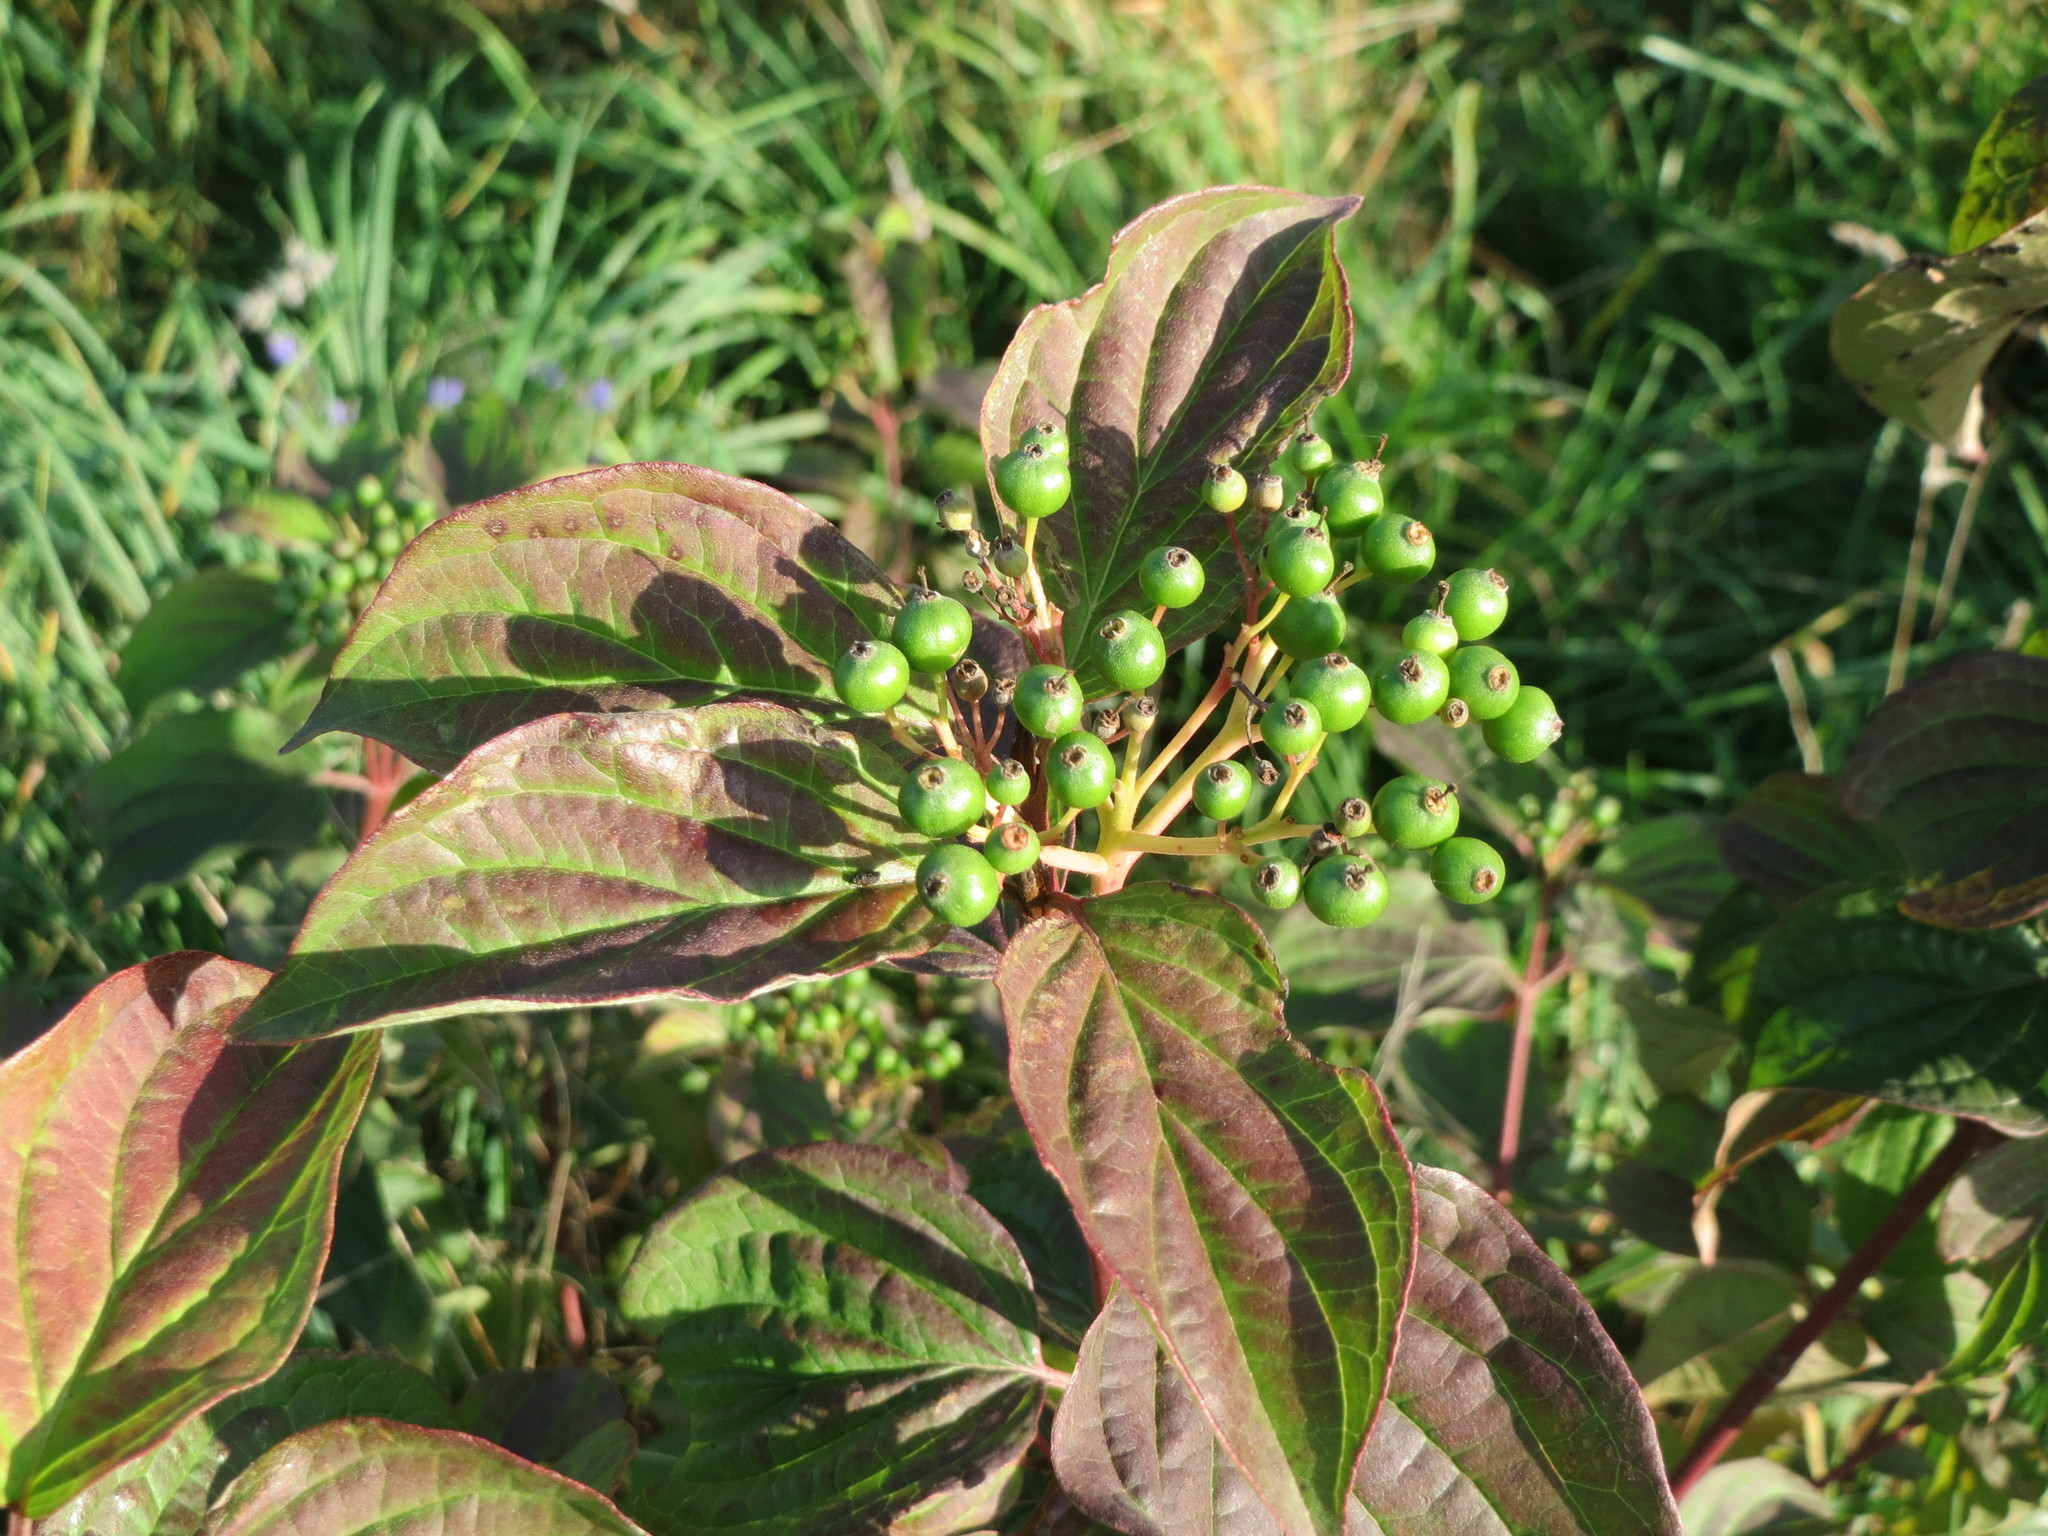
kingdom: Plantae
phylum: Tracheophyta
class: Magnoliopsida
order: Cornales
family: Cornaceae
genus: Cornus
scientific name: Cornus sanguinea
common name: Dogwood
